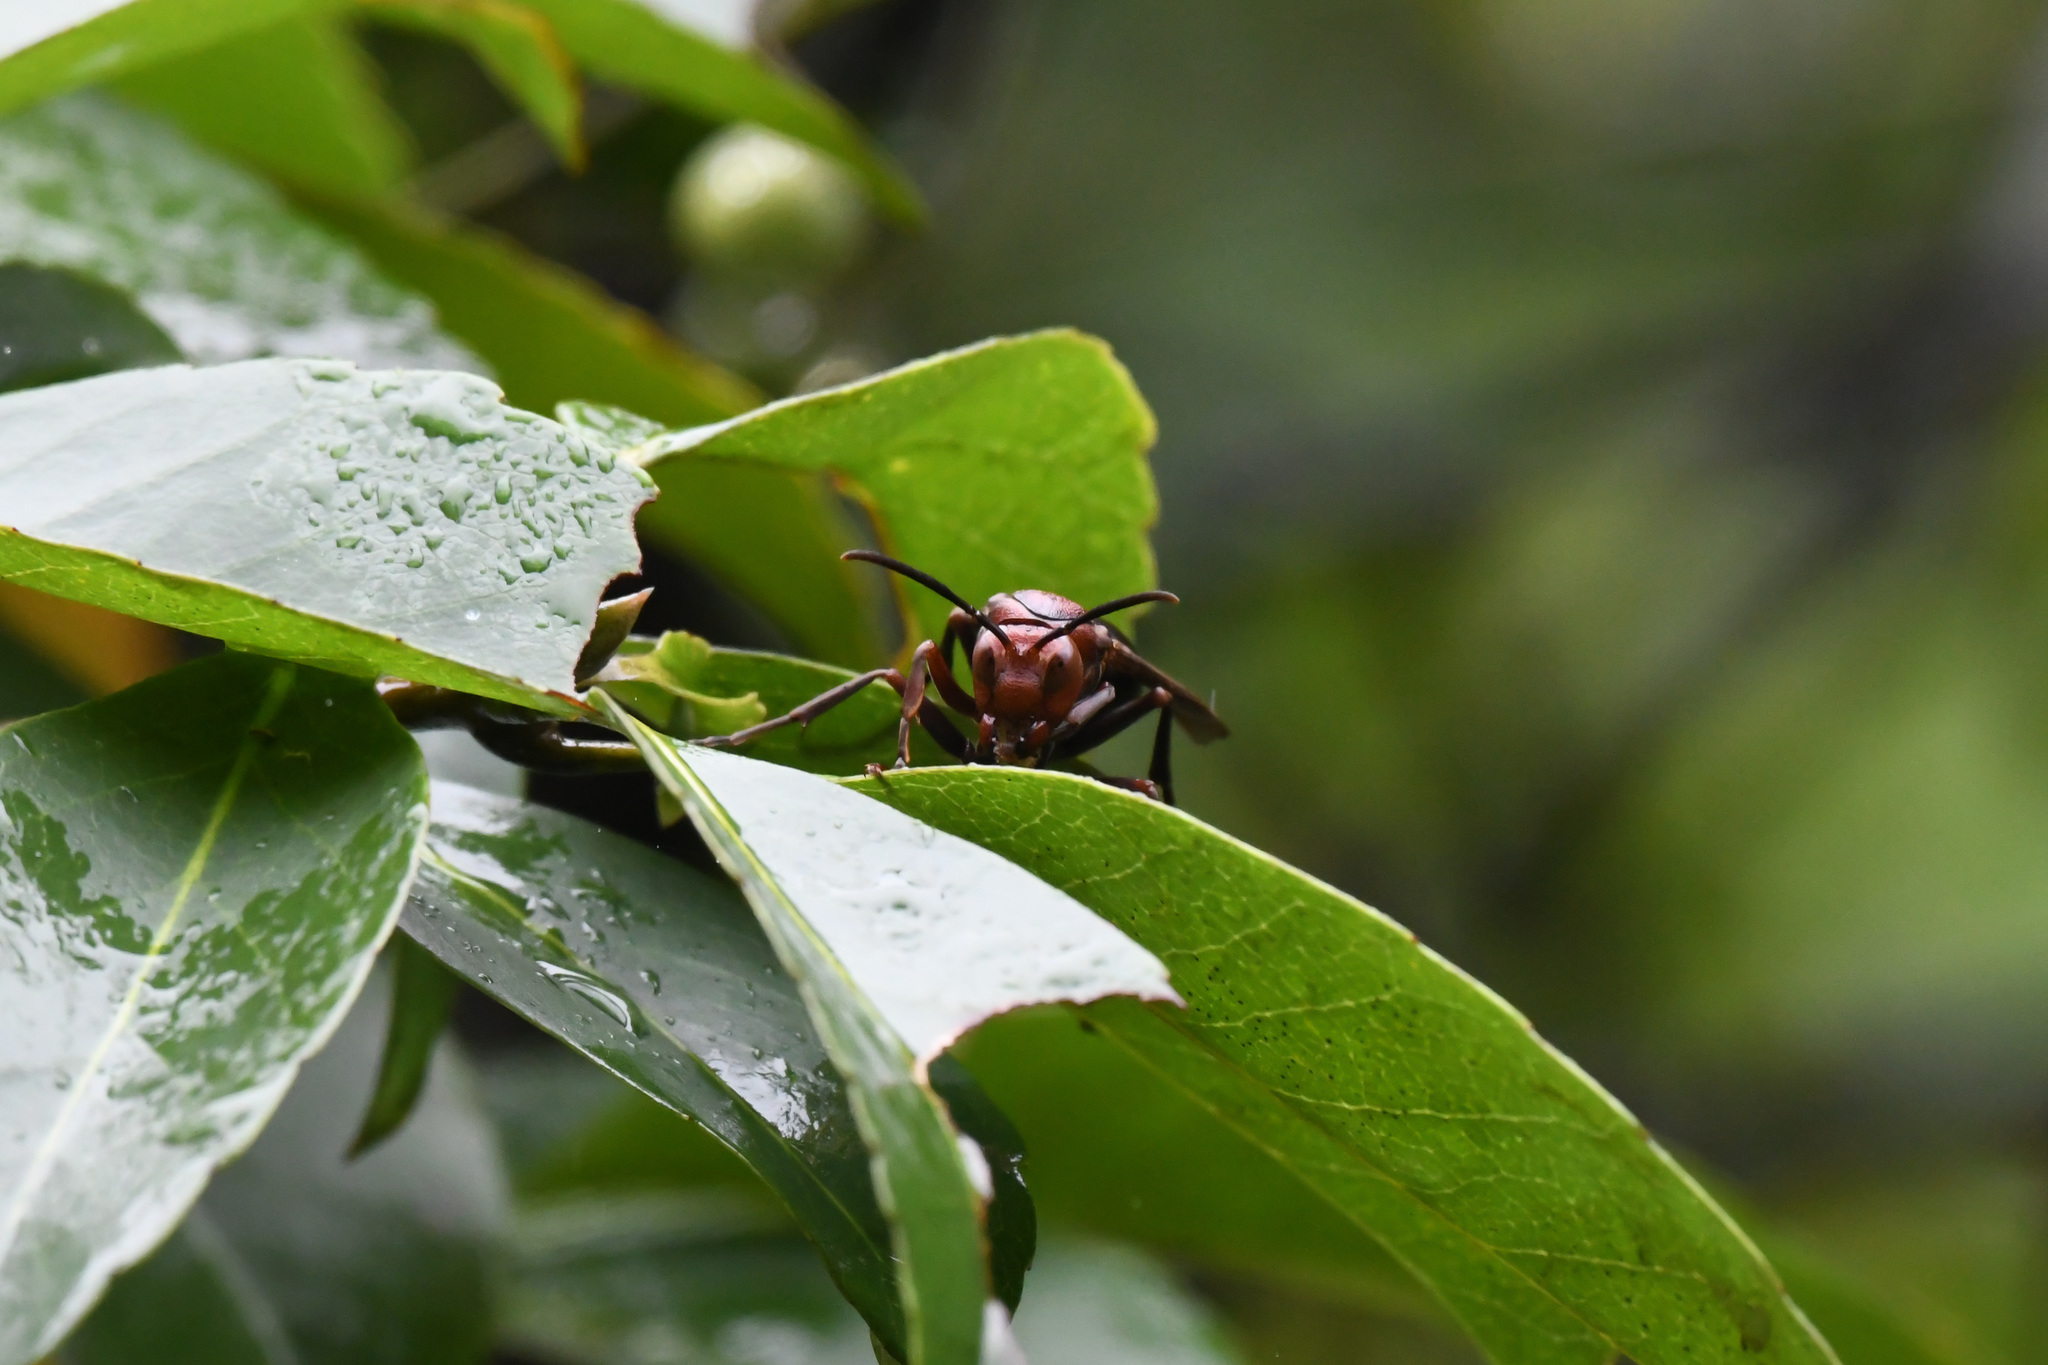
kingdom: Animalia
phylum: Arthropoda
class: Insecta
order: Hymenoptera
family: Eumenidae
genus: Polistes
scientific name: Polistes gigas
